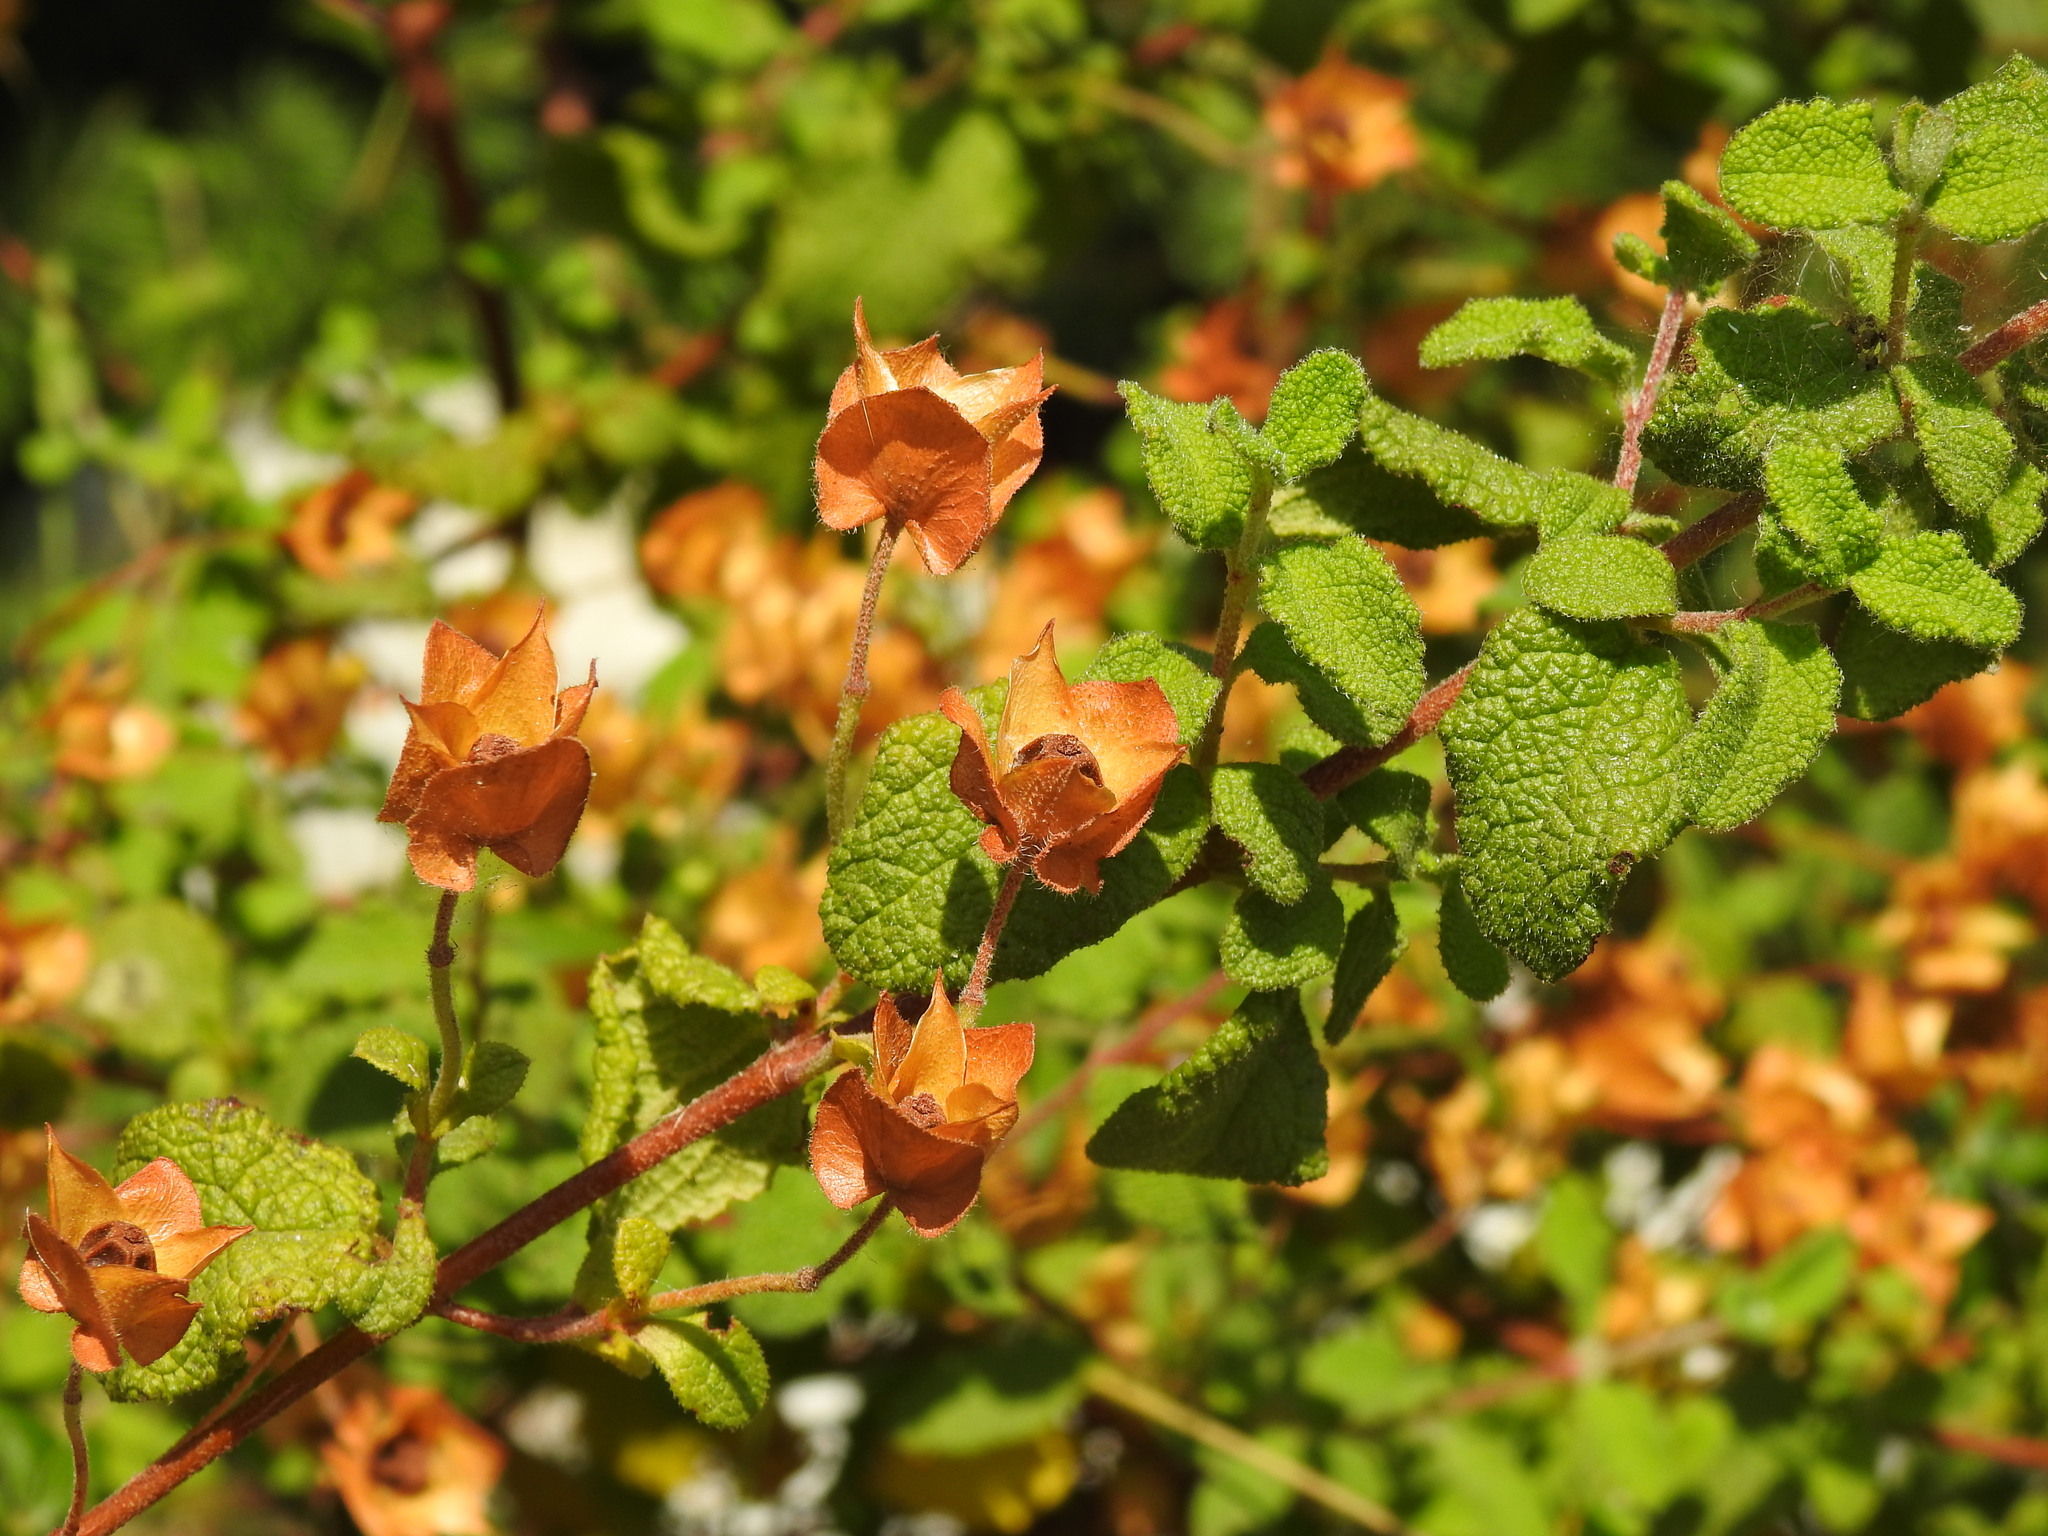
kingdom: Plantae
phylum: Tracheophyta
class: Magnoliopsida
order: Malvales
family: Cistaceae
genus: Cistus
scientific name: Cistus salviifolius
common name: Salvia cistus
